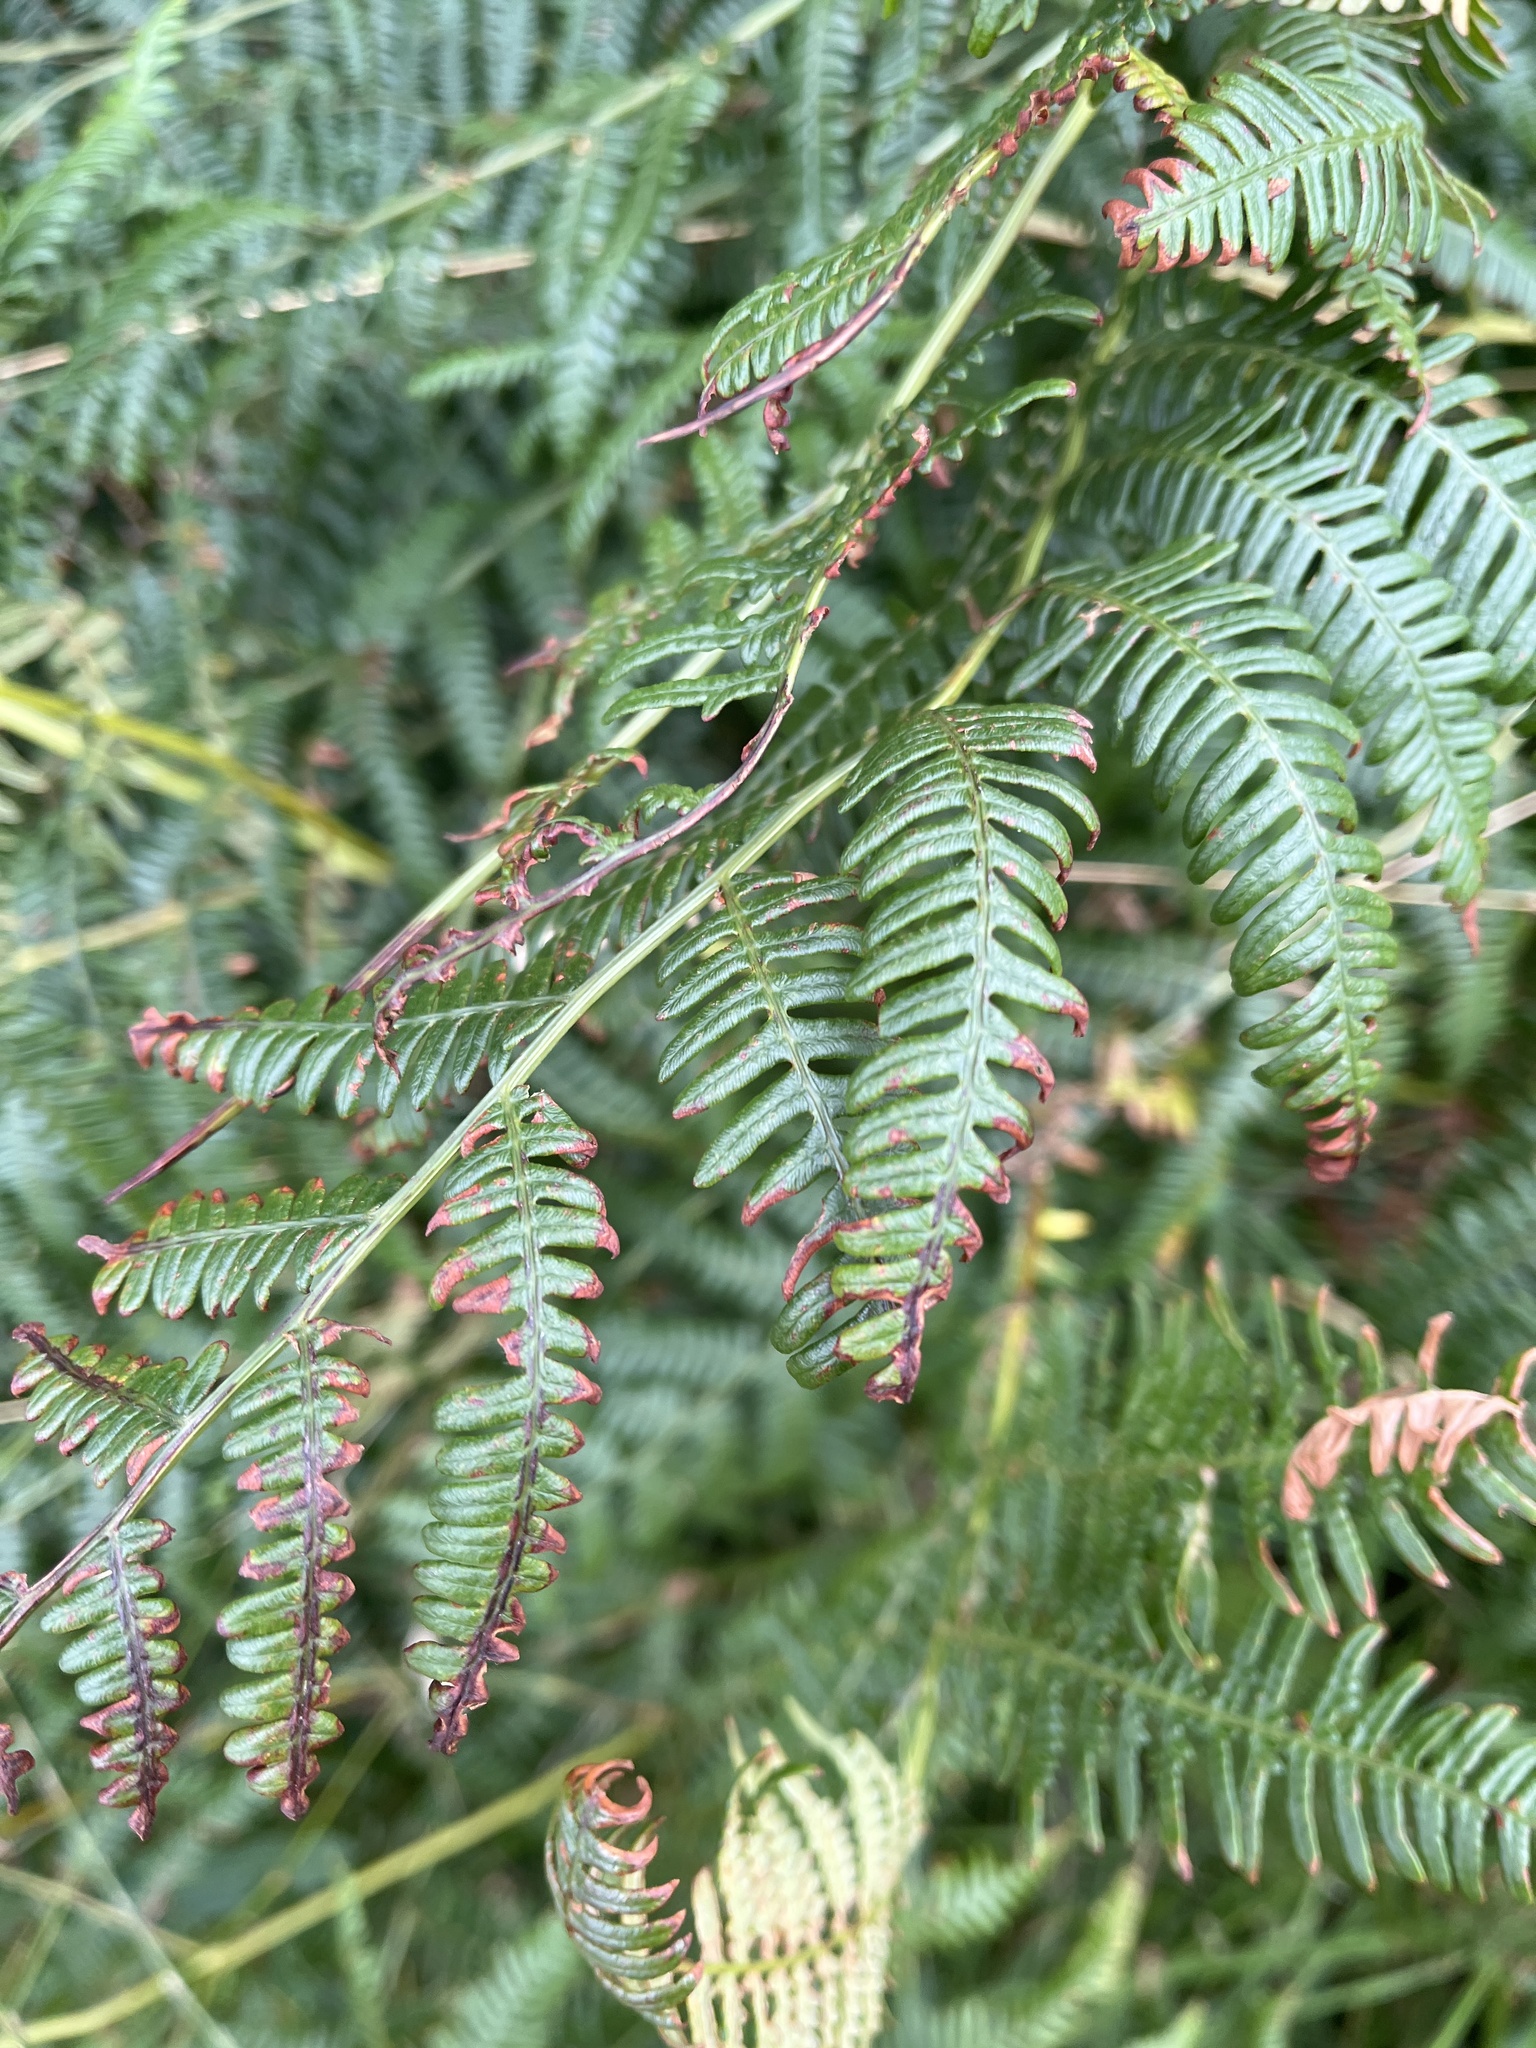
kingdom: Plantae
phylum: Tracheophyta
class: Polypodiopsida
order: Polypodiales
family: Dennstaedtiaceae
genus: Pteridium
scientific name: Pteridium aquilinum
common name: Bracken
